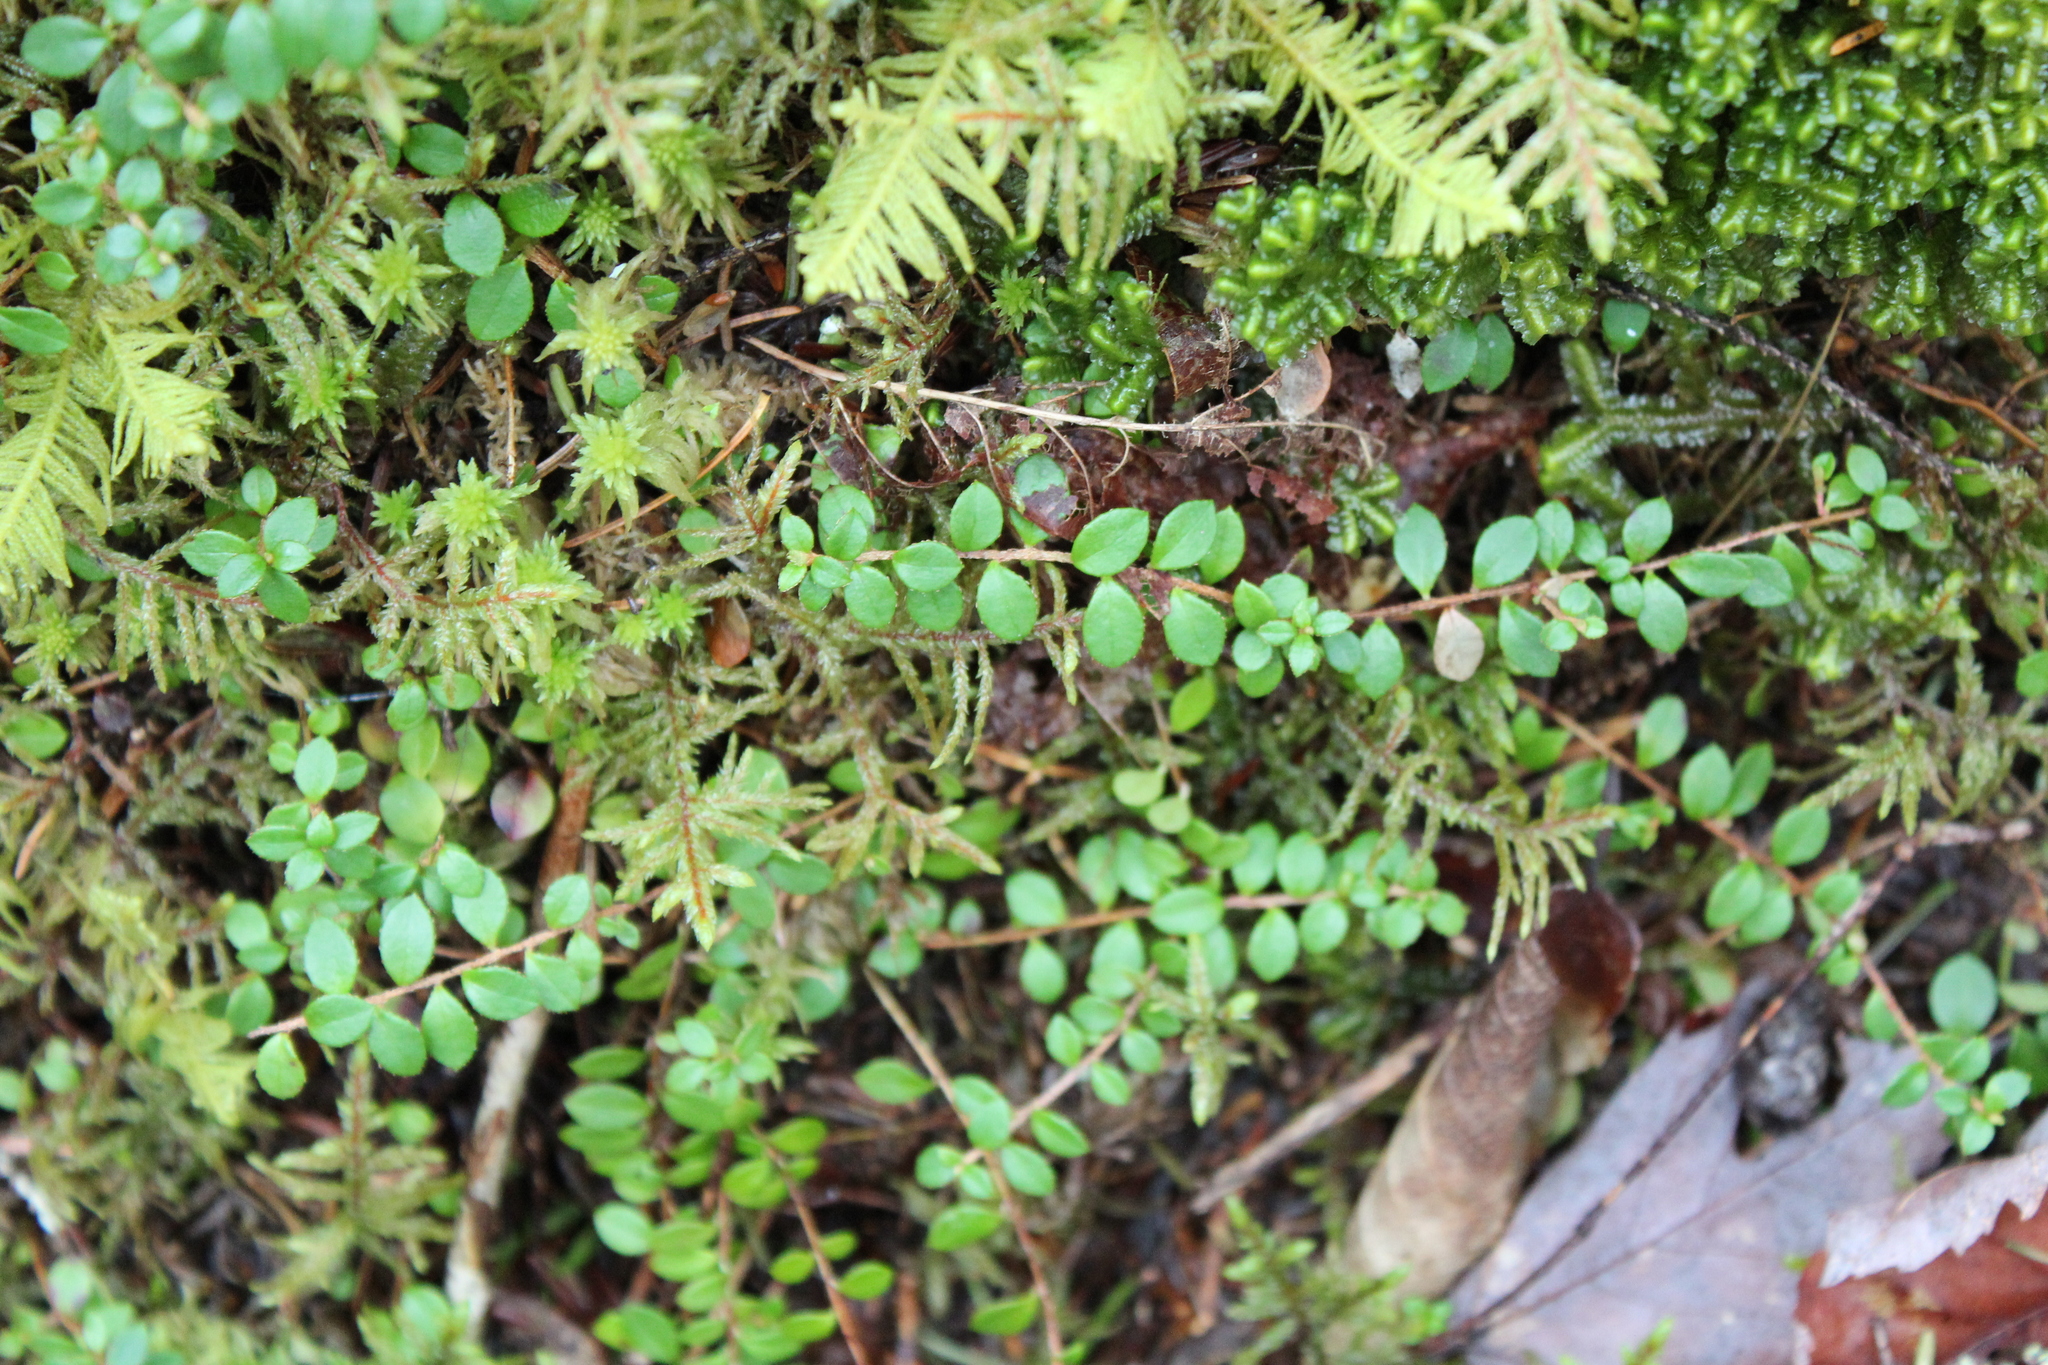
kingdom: Plantae
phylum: Tracheophyta
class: Magnoliopsida
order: Ericales
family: Ericaceae
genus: Gaultheria
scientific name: Gaultheria hispidula
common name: Cancer wintergreen
